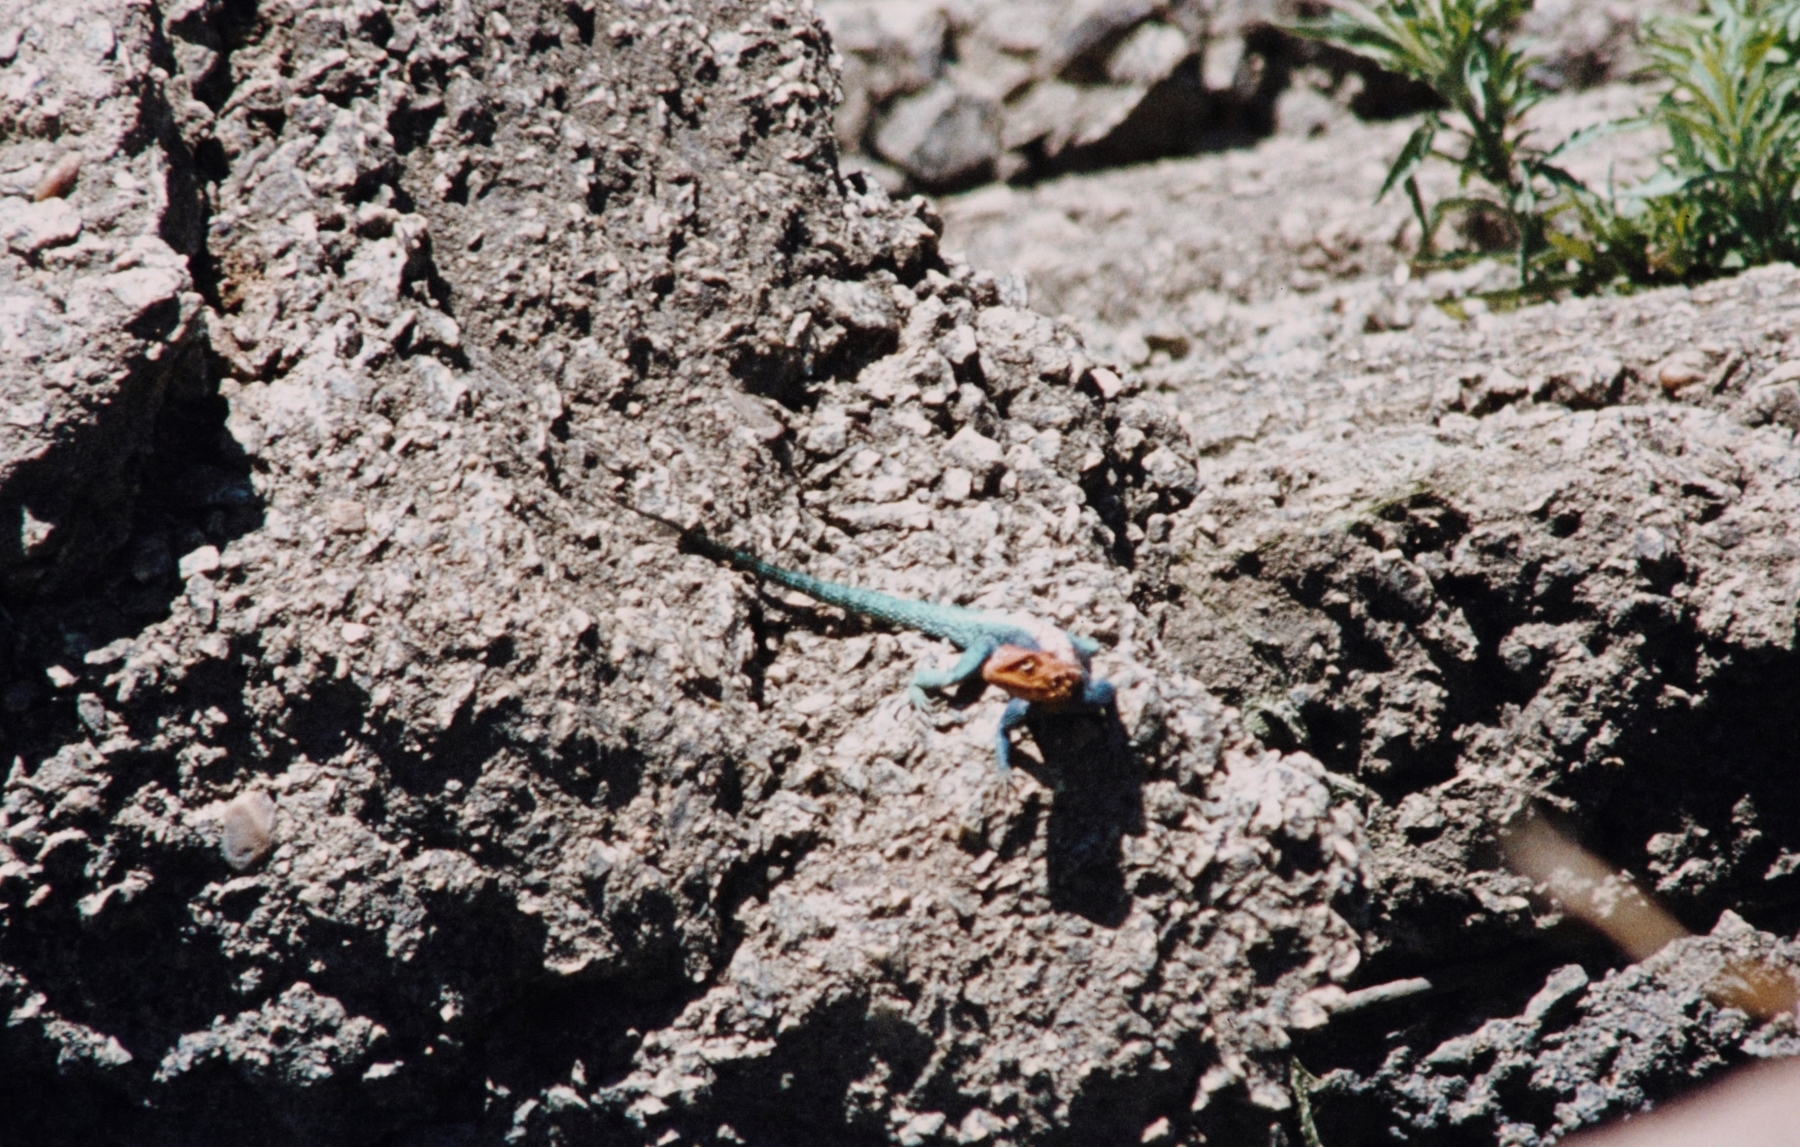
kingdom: Animalia
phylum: Chordata
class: Squamata
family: Agamidae
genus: Agama
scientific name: Agama kirkii
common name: Kirk's rock agama
